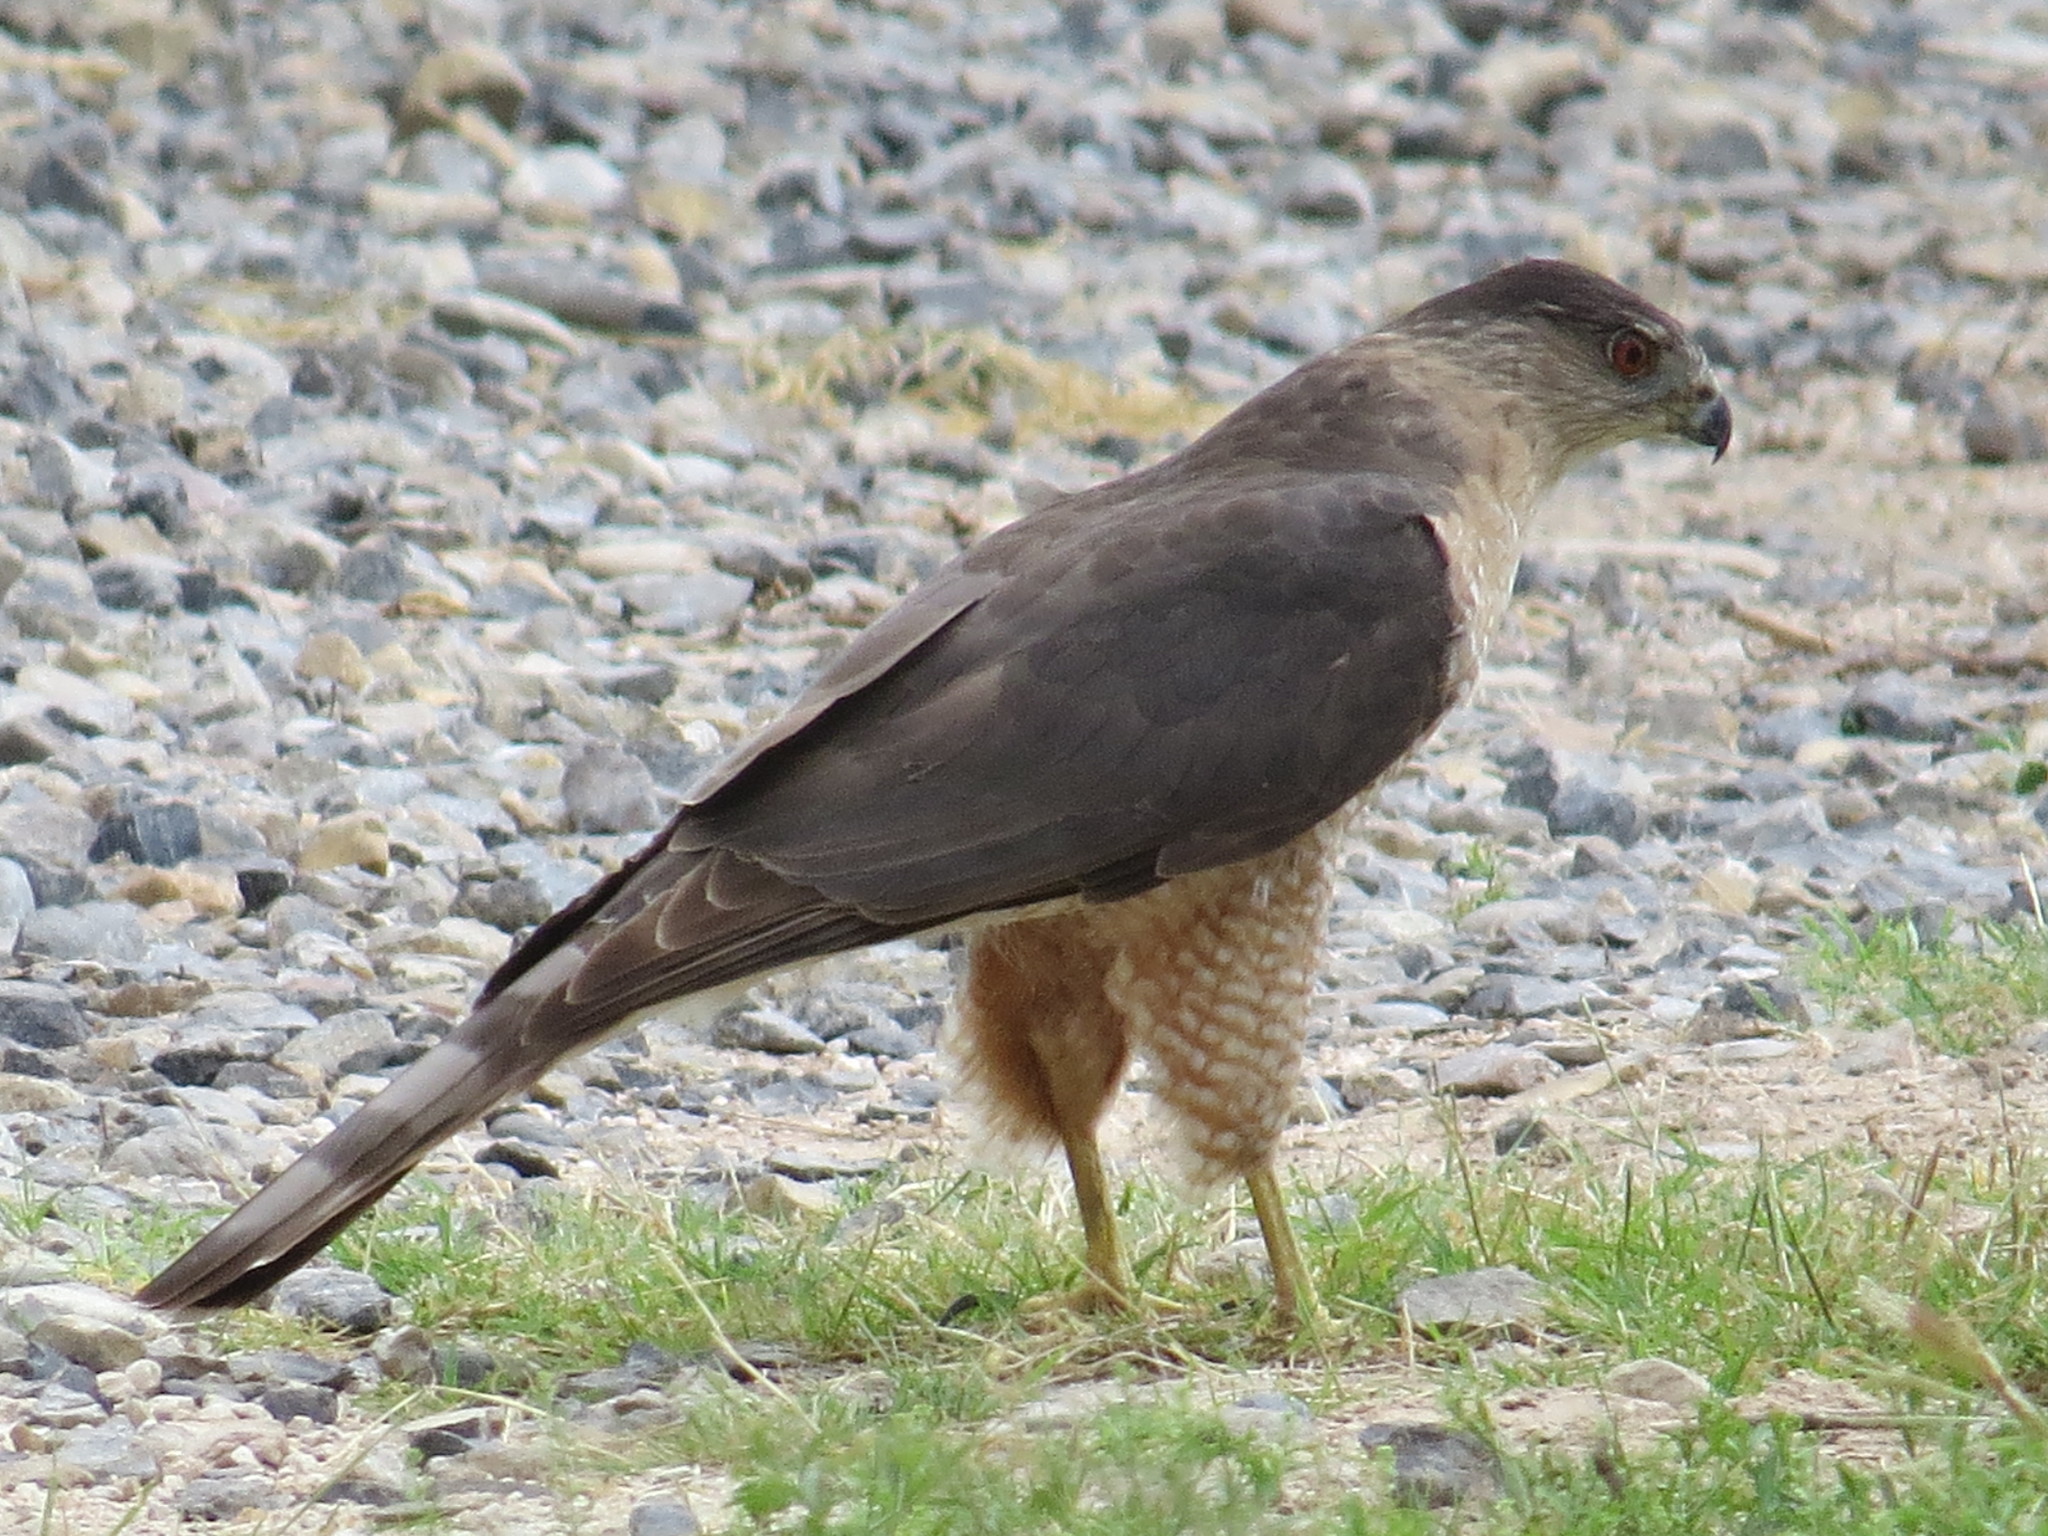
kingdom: Animalia
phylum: Chordata
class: Aves
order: Accipitriformes
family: Accipitridae
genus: Accipiter
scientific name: Accipiter cooperii
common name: Cooper's hawk
